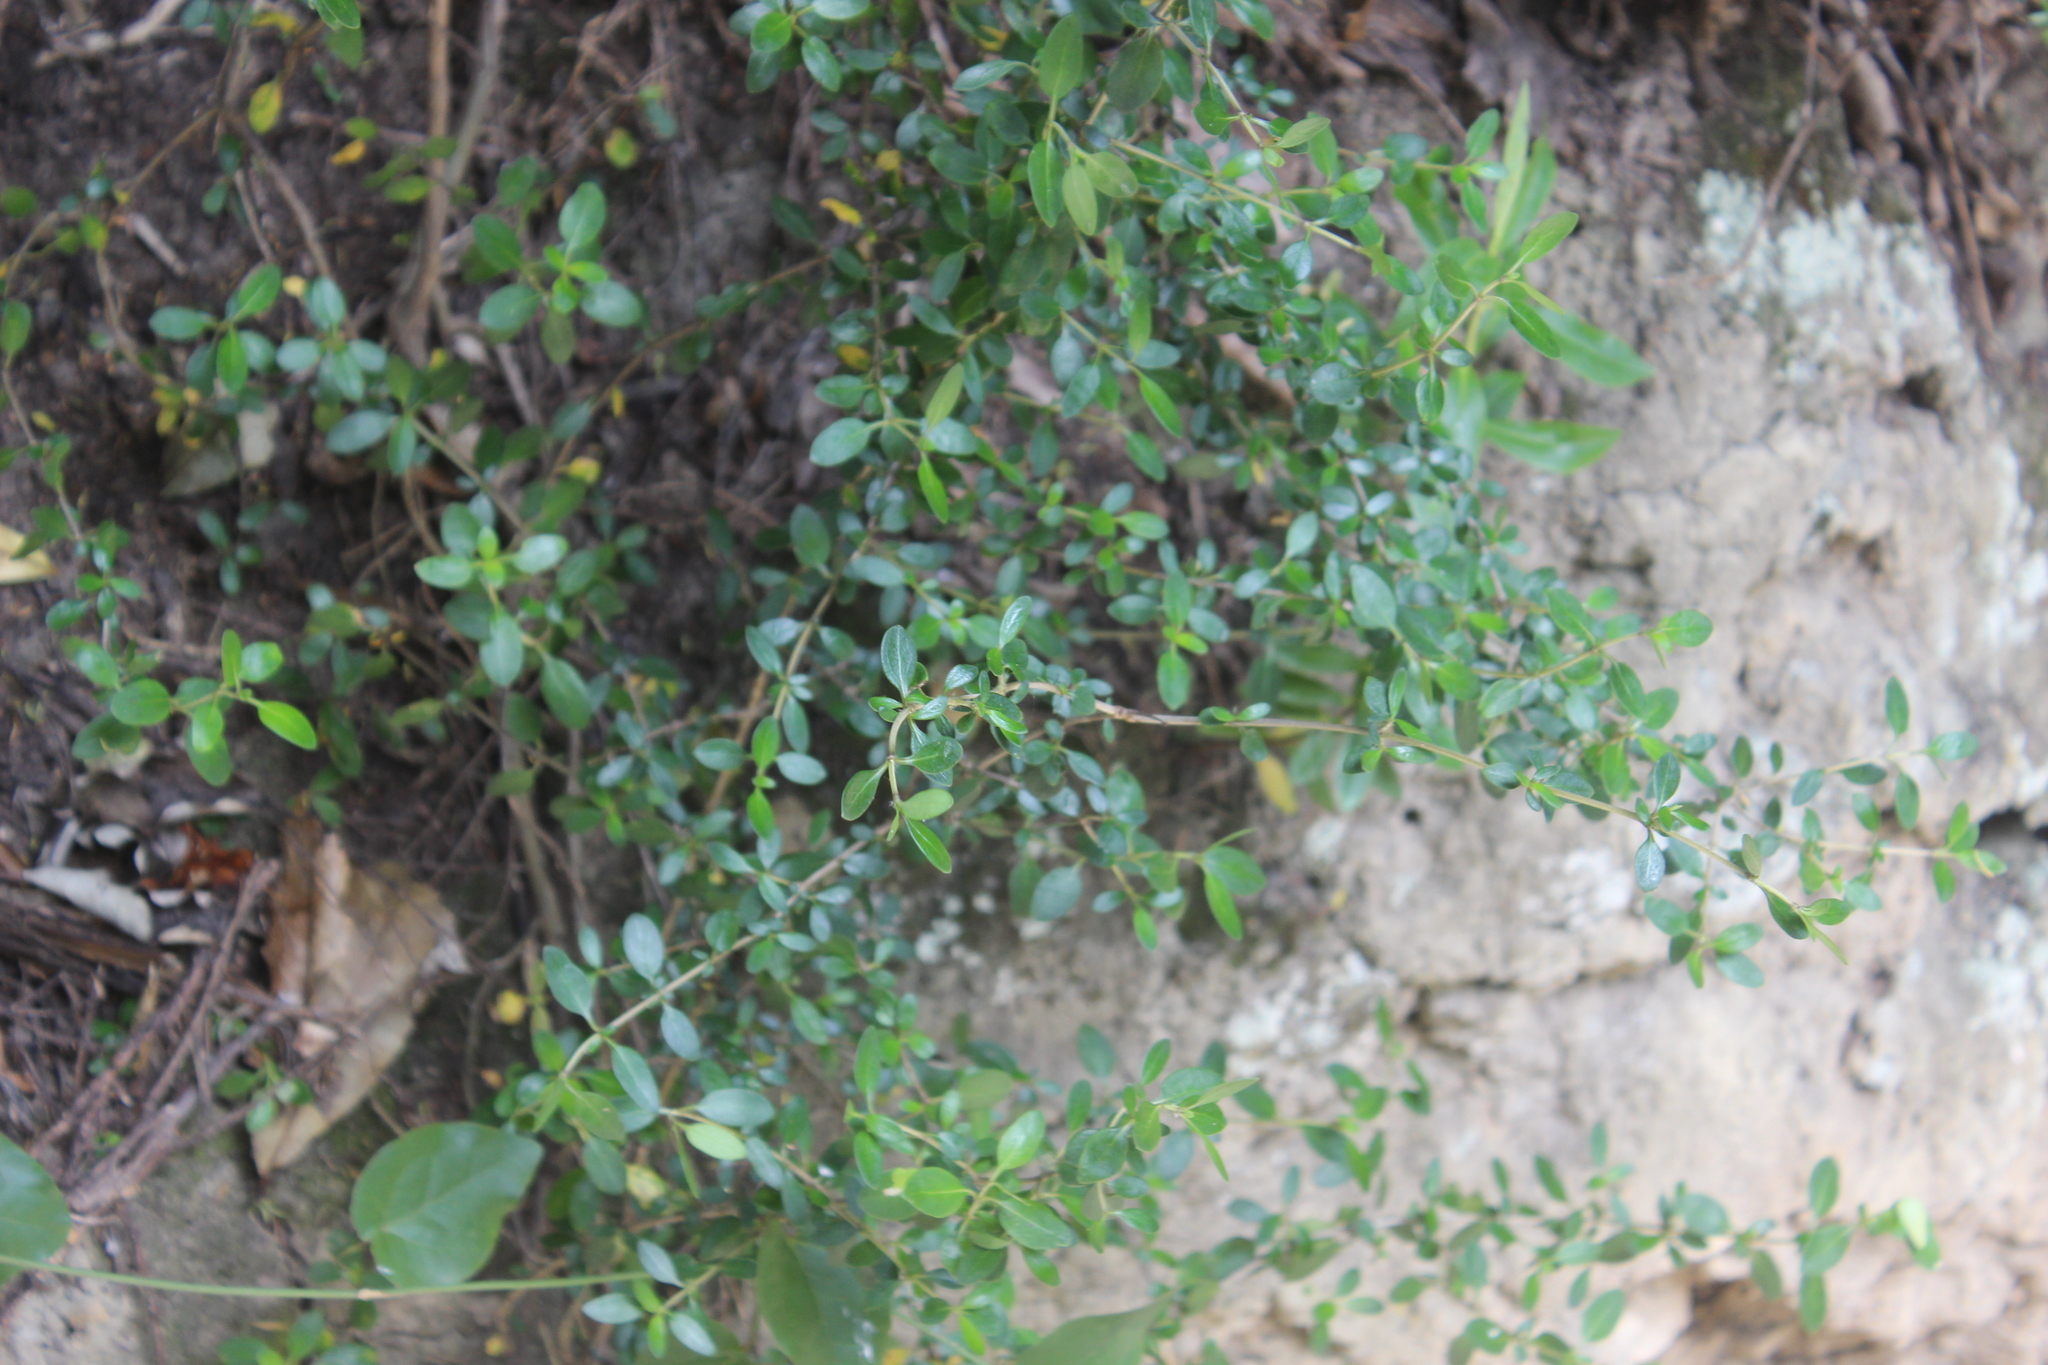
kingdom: Plantae
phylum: Tracheophyta
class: Magnoliopsida
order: Gentianales
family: Rubiaceae
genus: Coprosma
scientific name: Coprosma cunninghamii
